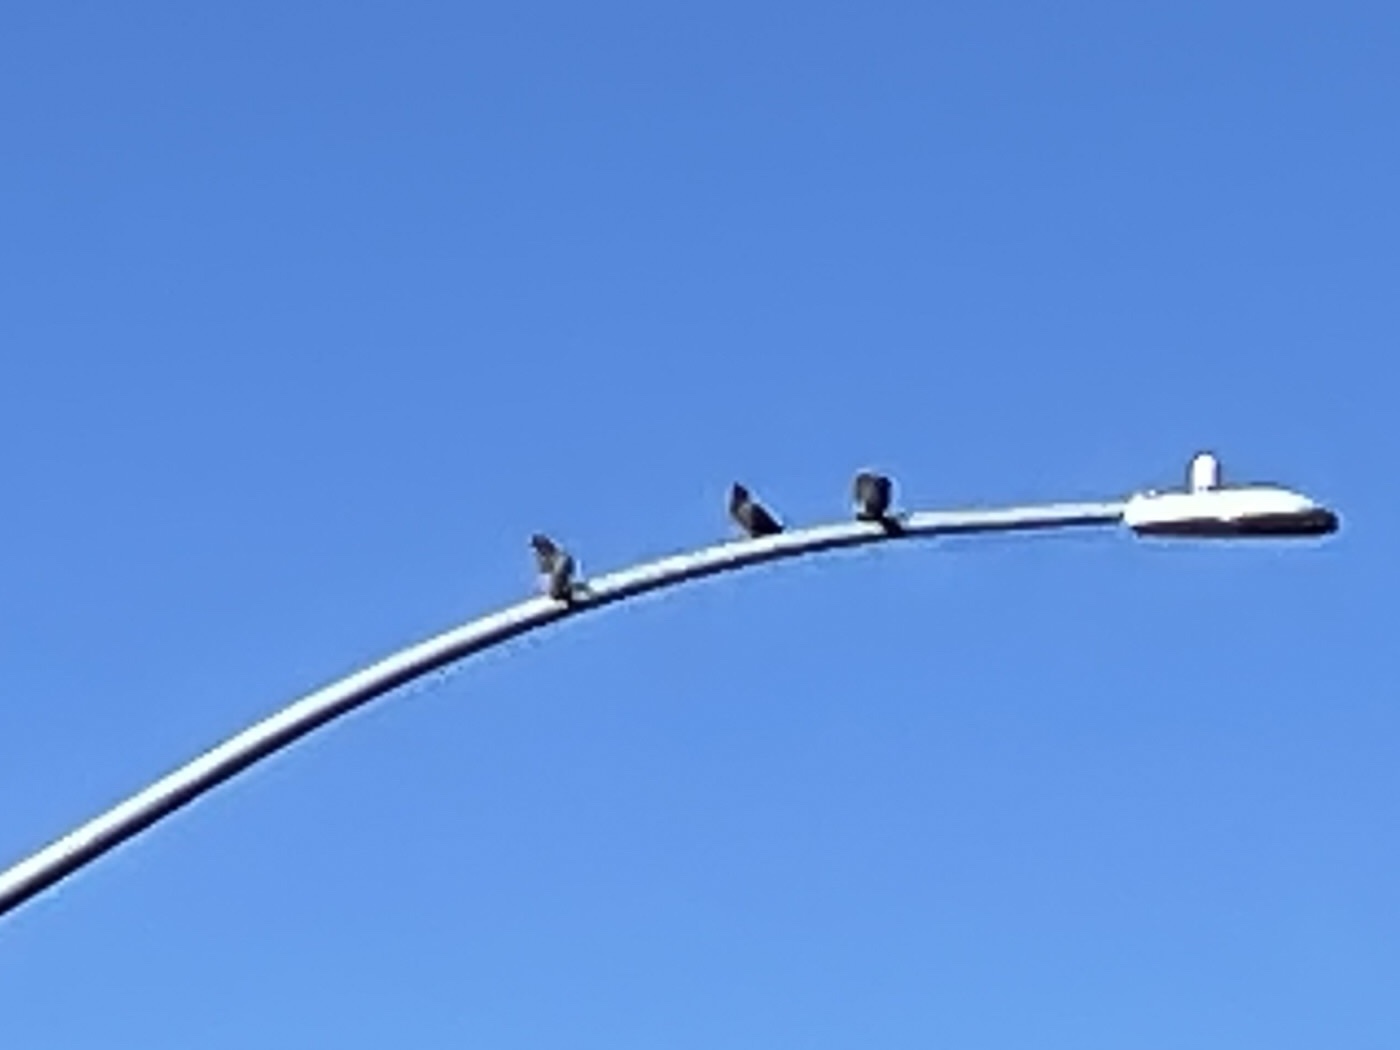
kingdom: Animalia
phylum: Chordata
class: Aves
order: Columbiformes
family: Columbidae
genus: Columba
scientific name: Columba livia
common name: Rock pigeon
